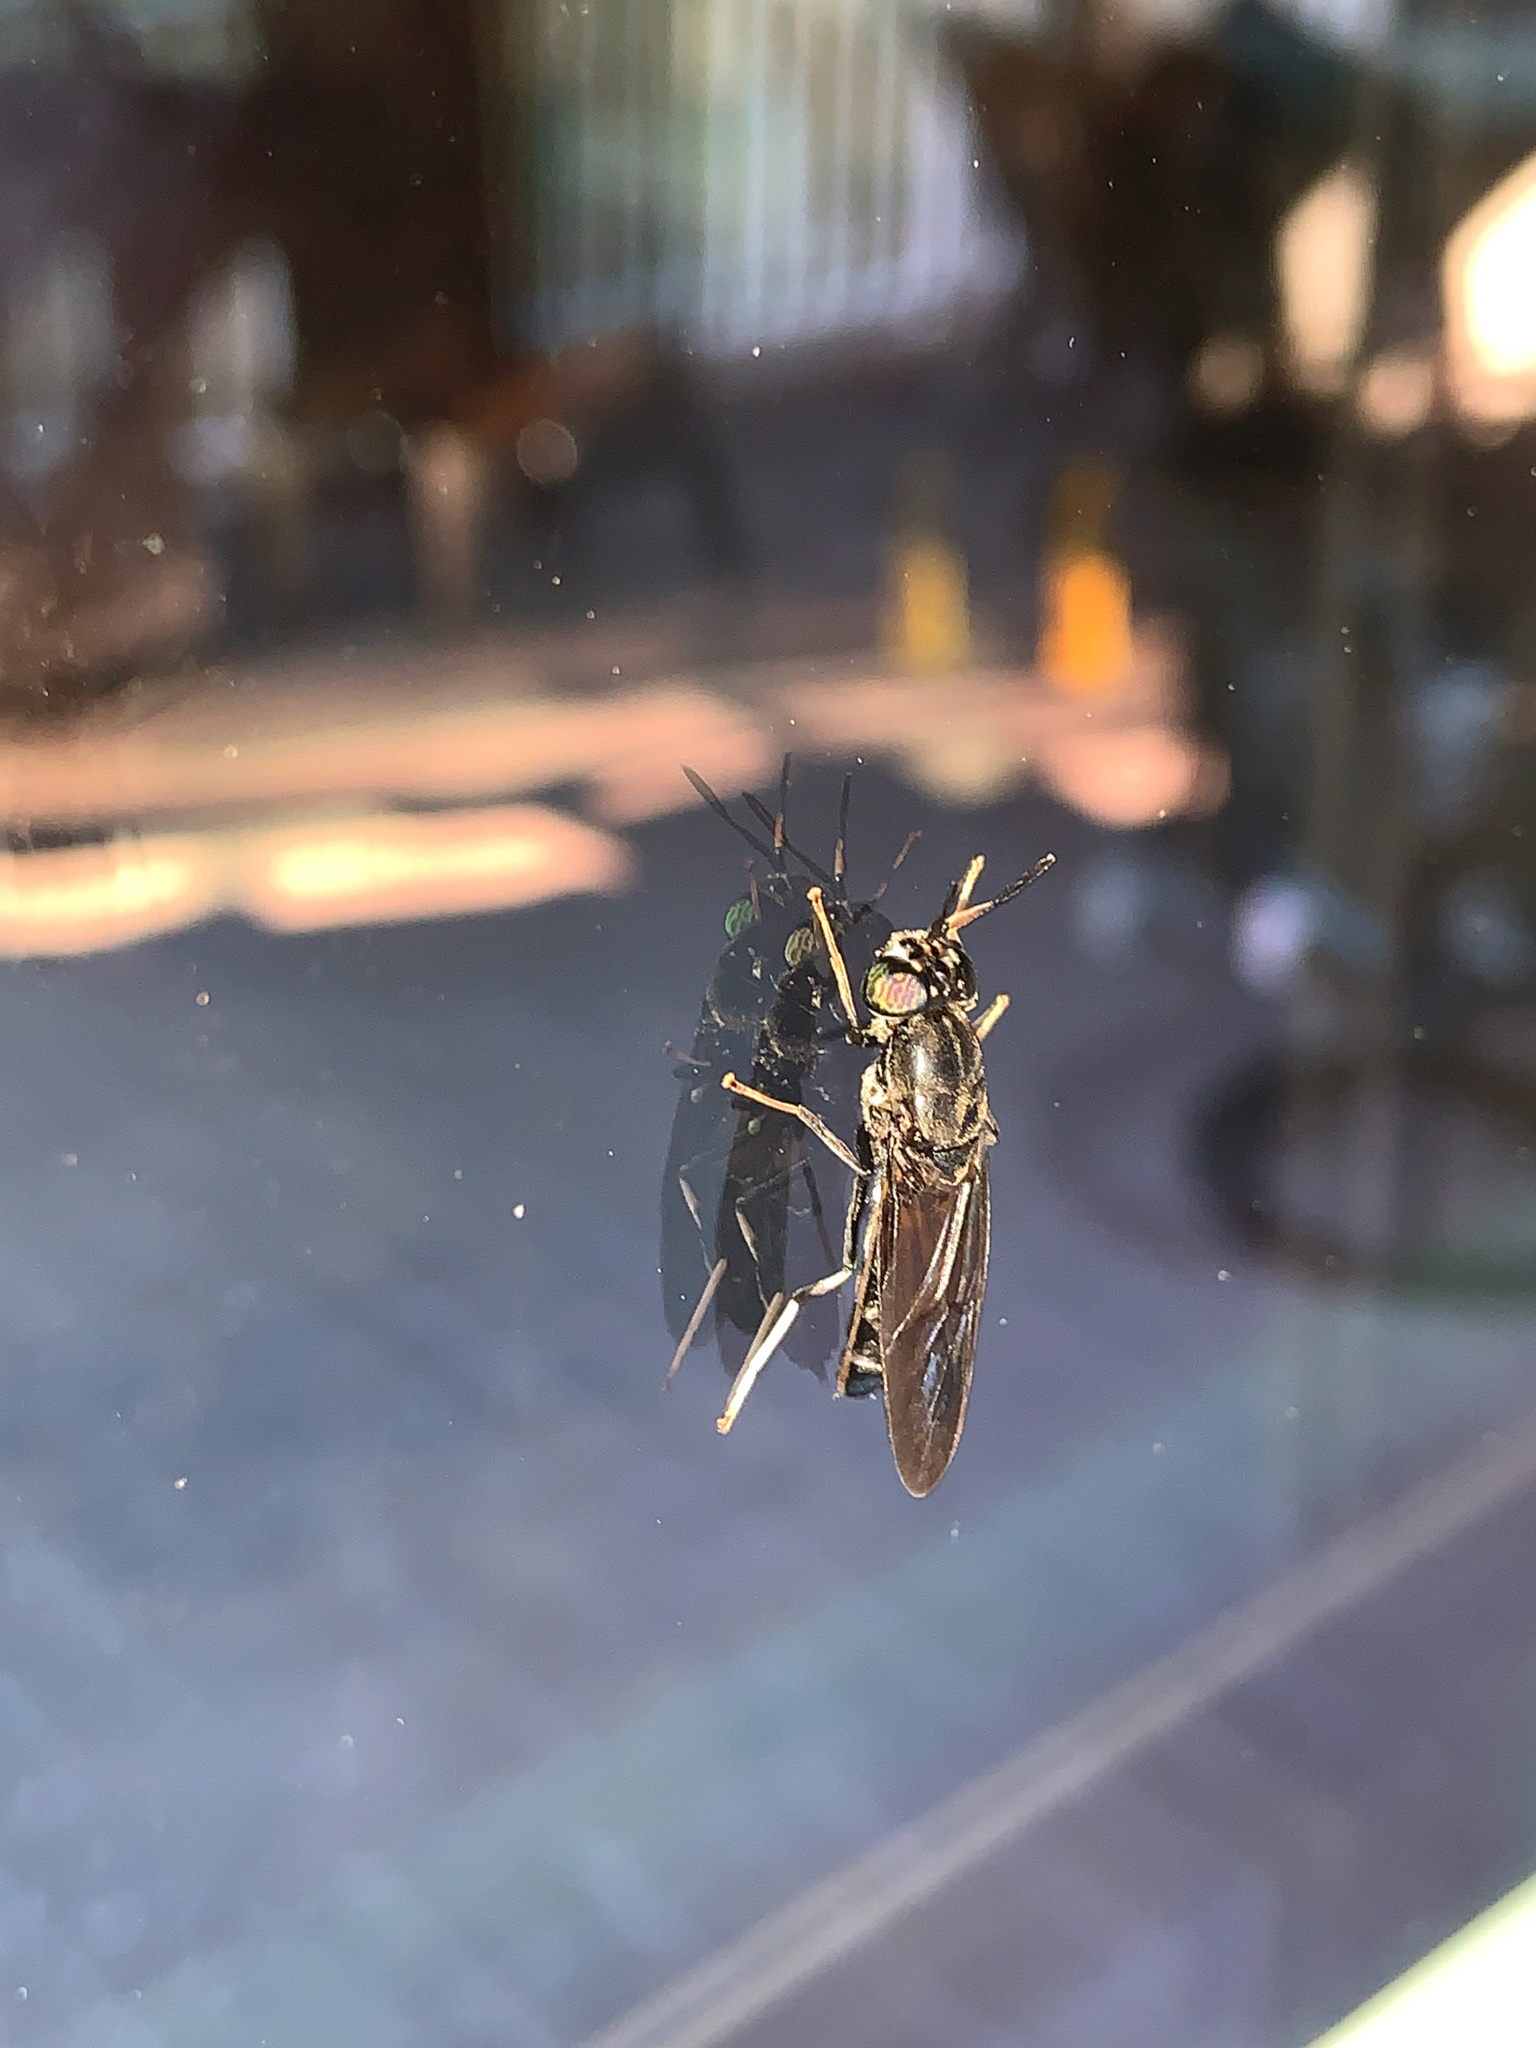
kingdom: Animalia
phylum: Arthropoda
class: Insecta
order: Diptera
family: Stratiomyidae
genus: Hermetia
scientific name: Hermetia illucens
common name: Black soldier fly
